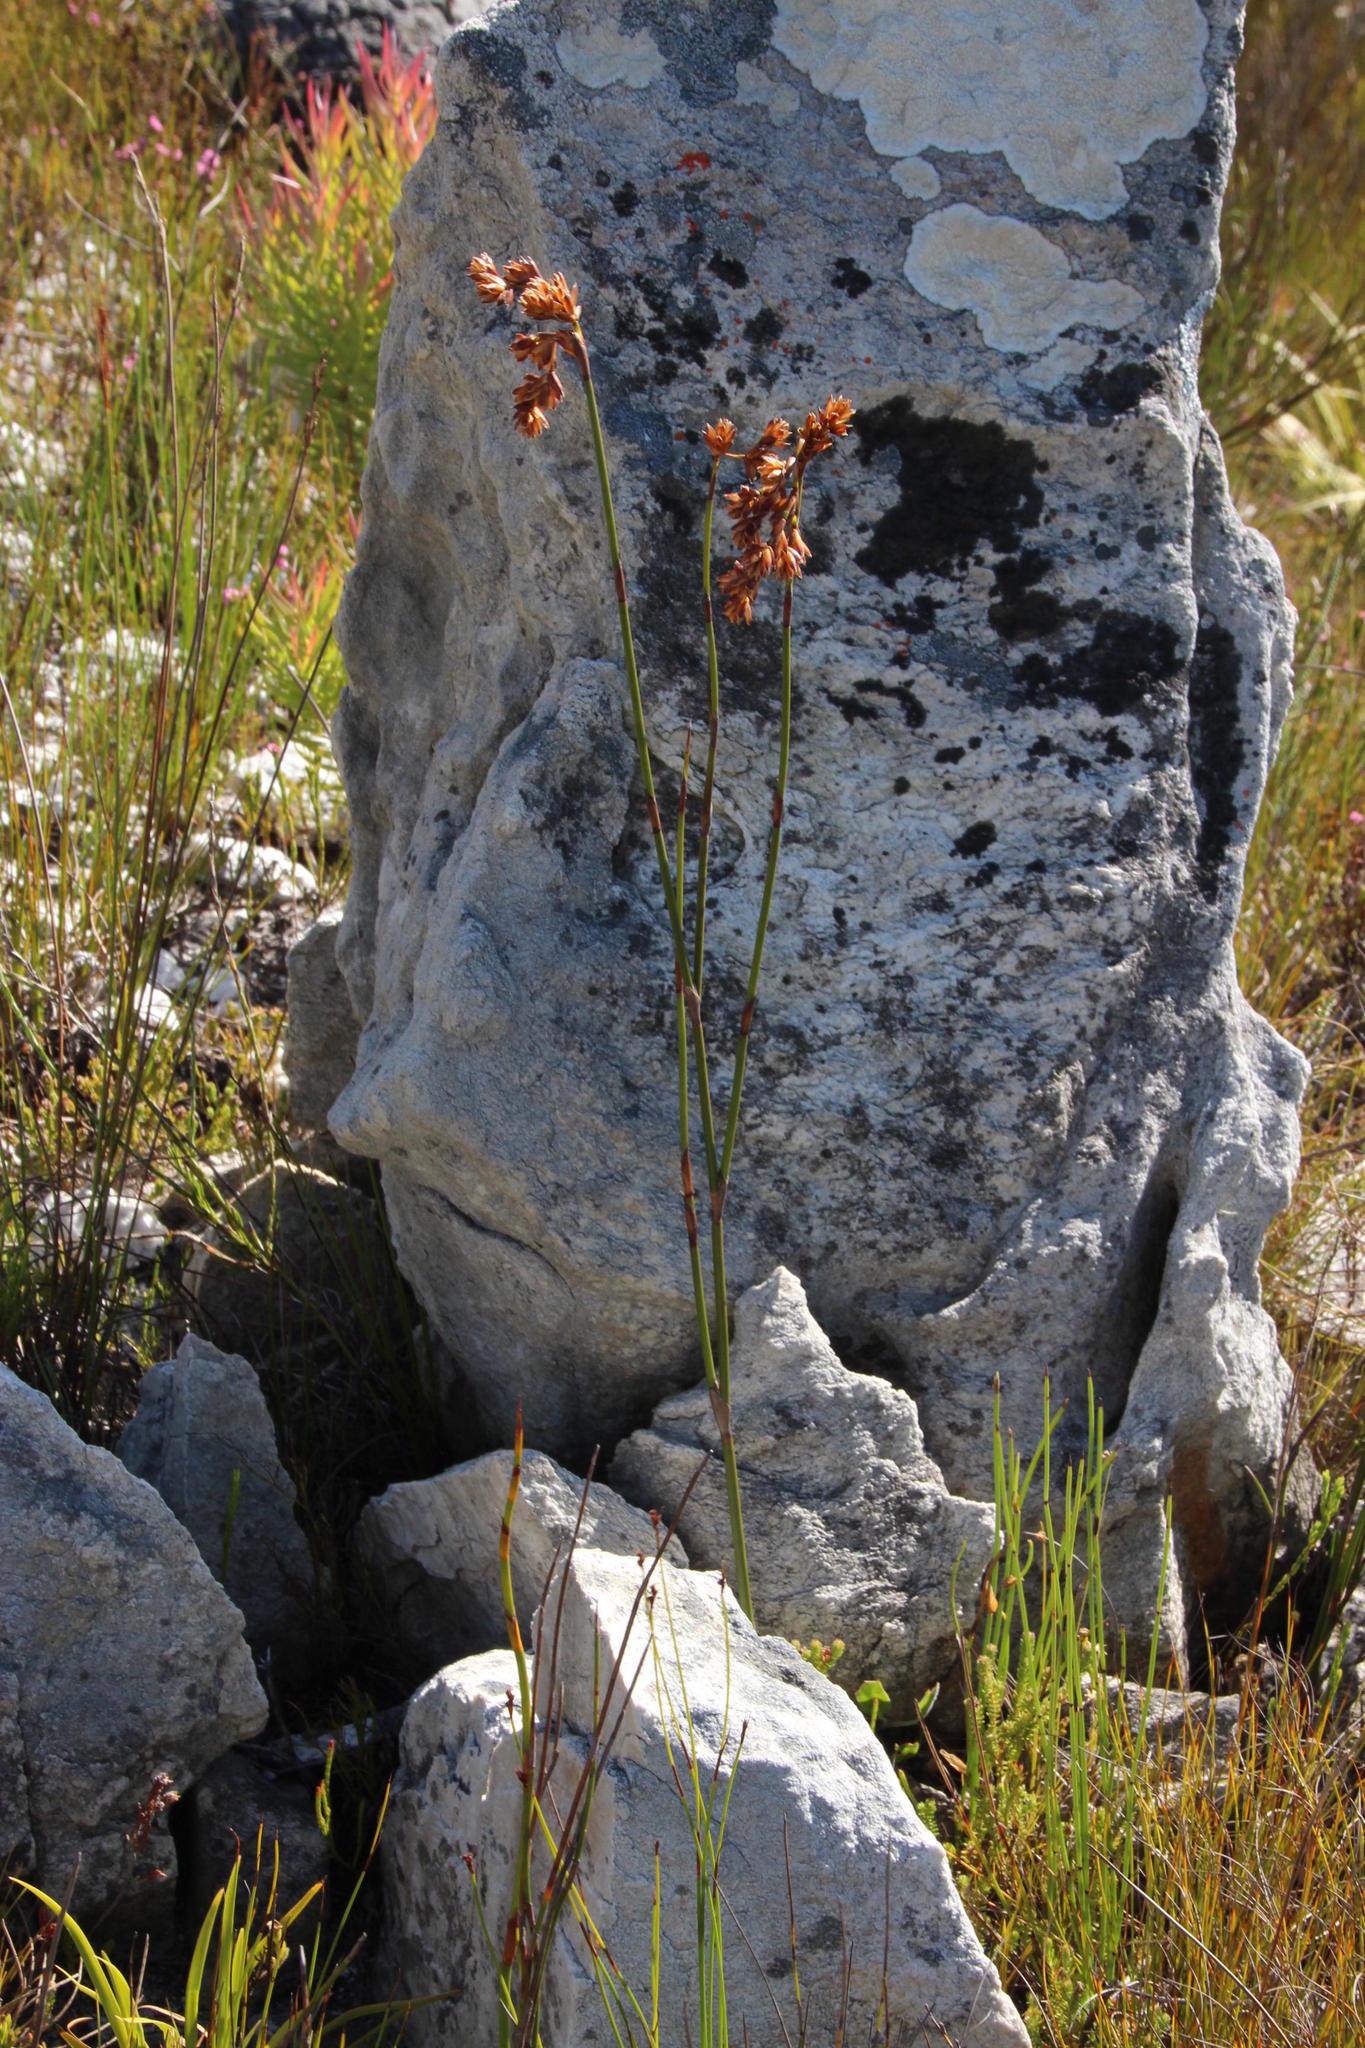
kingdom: Plantae
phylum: Tracheophyta
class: Liliopsida
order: Poales
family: Restionaceae
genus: Restio
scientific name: Restio egregius
